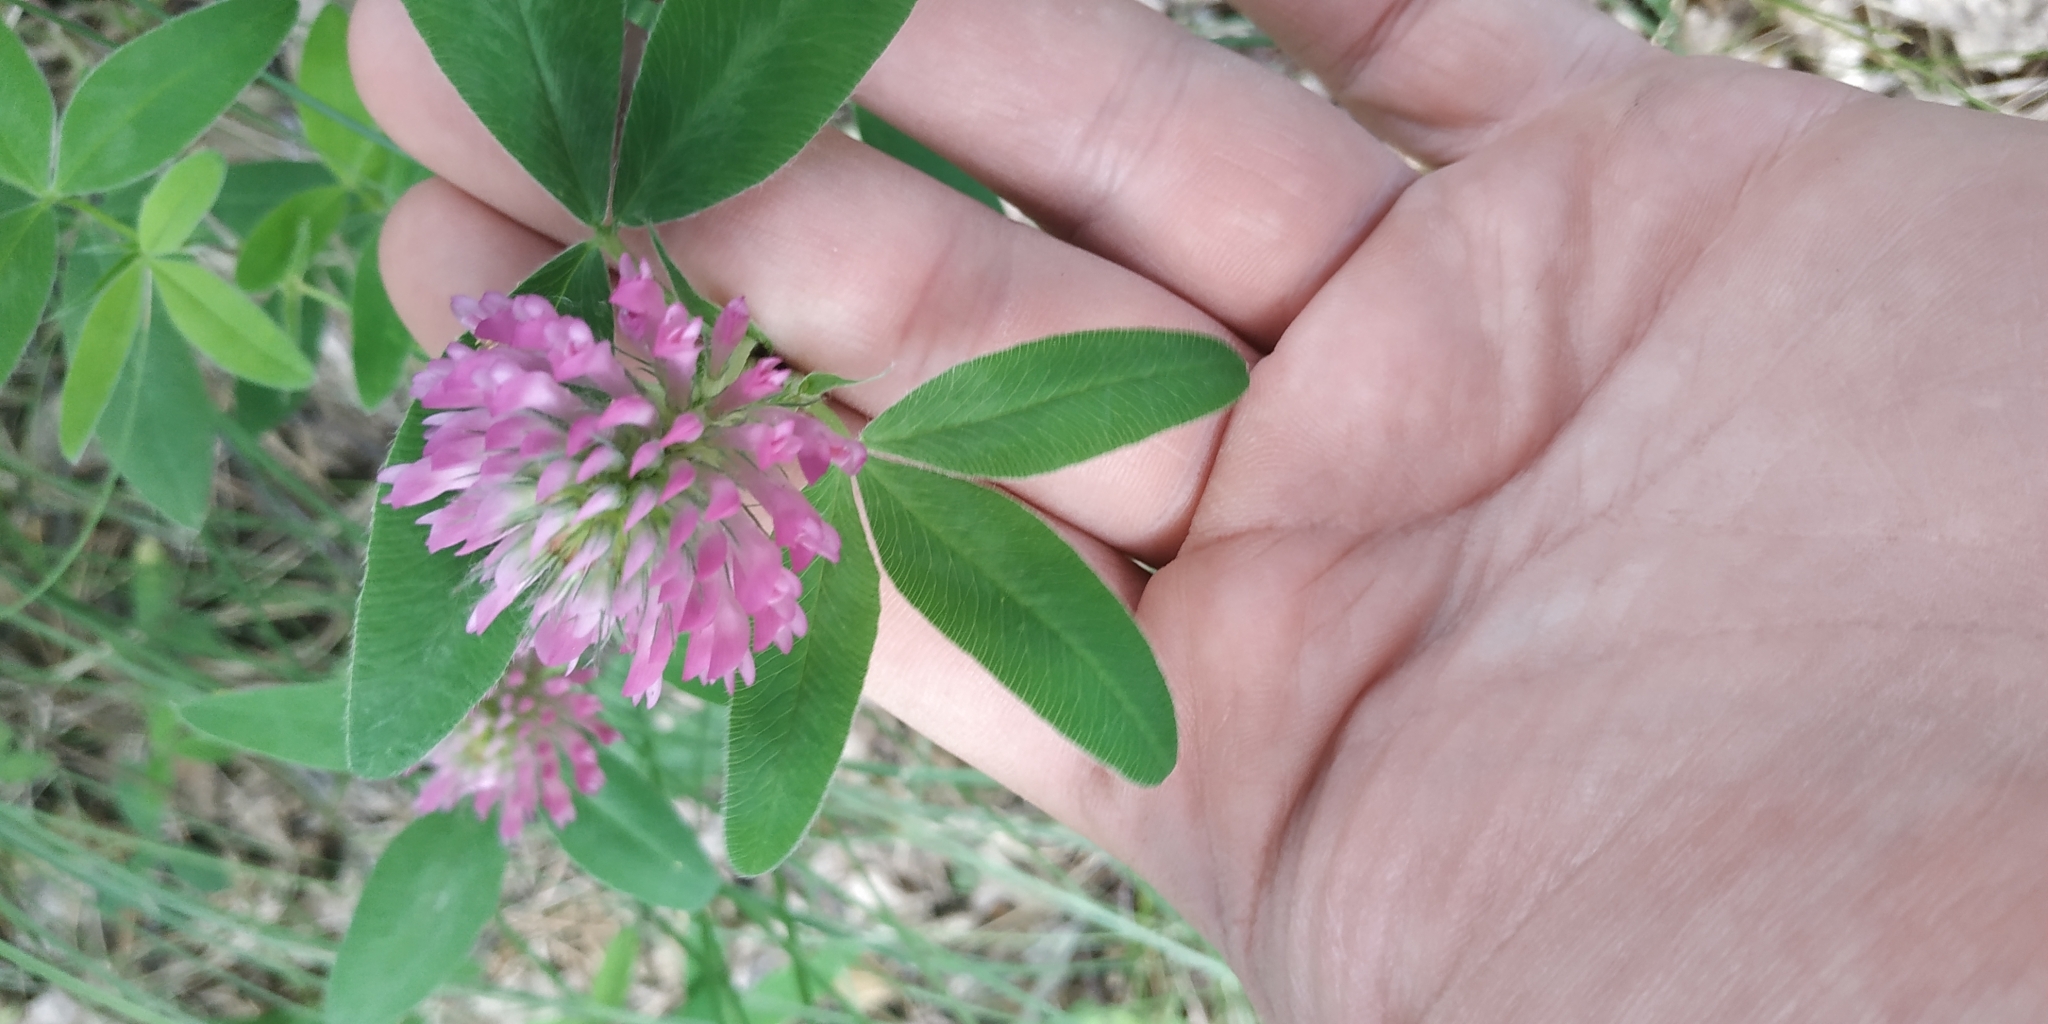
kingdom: Plantae
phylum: Tracheophyta
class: Magnoliopsida
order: Fabales
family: Fabaceae
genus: Trifolium
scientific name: Trifolium medium
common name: Zigzag clover
